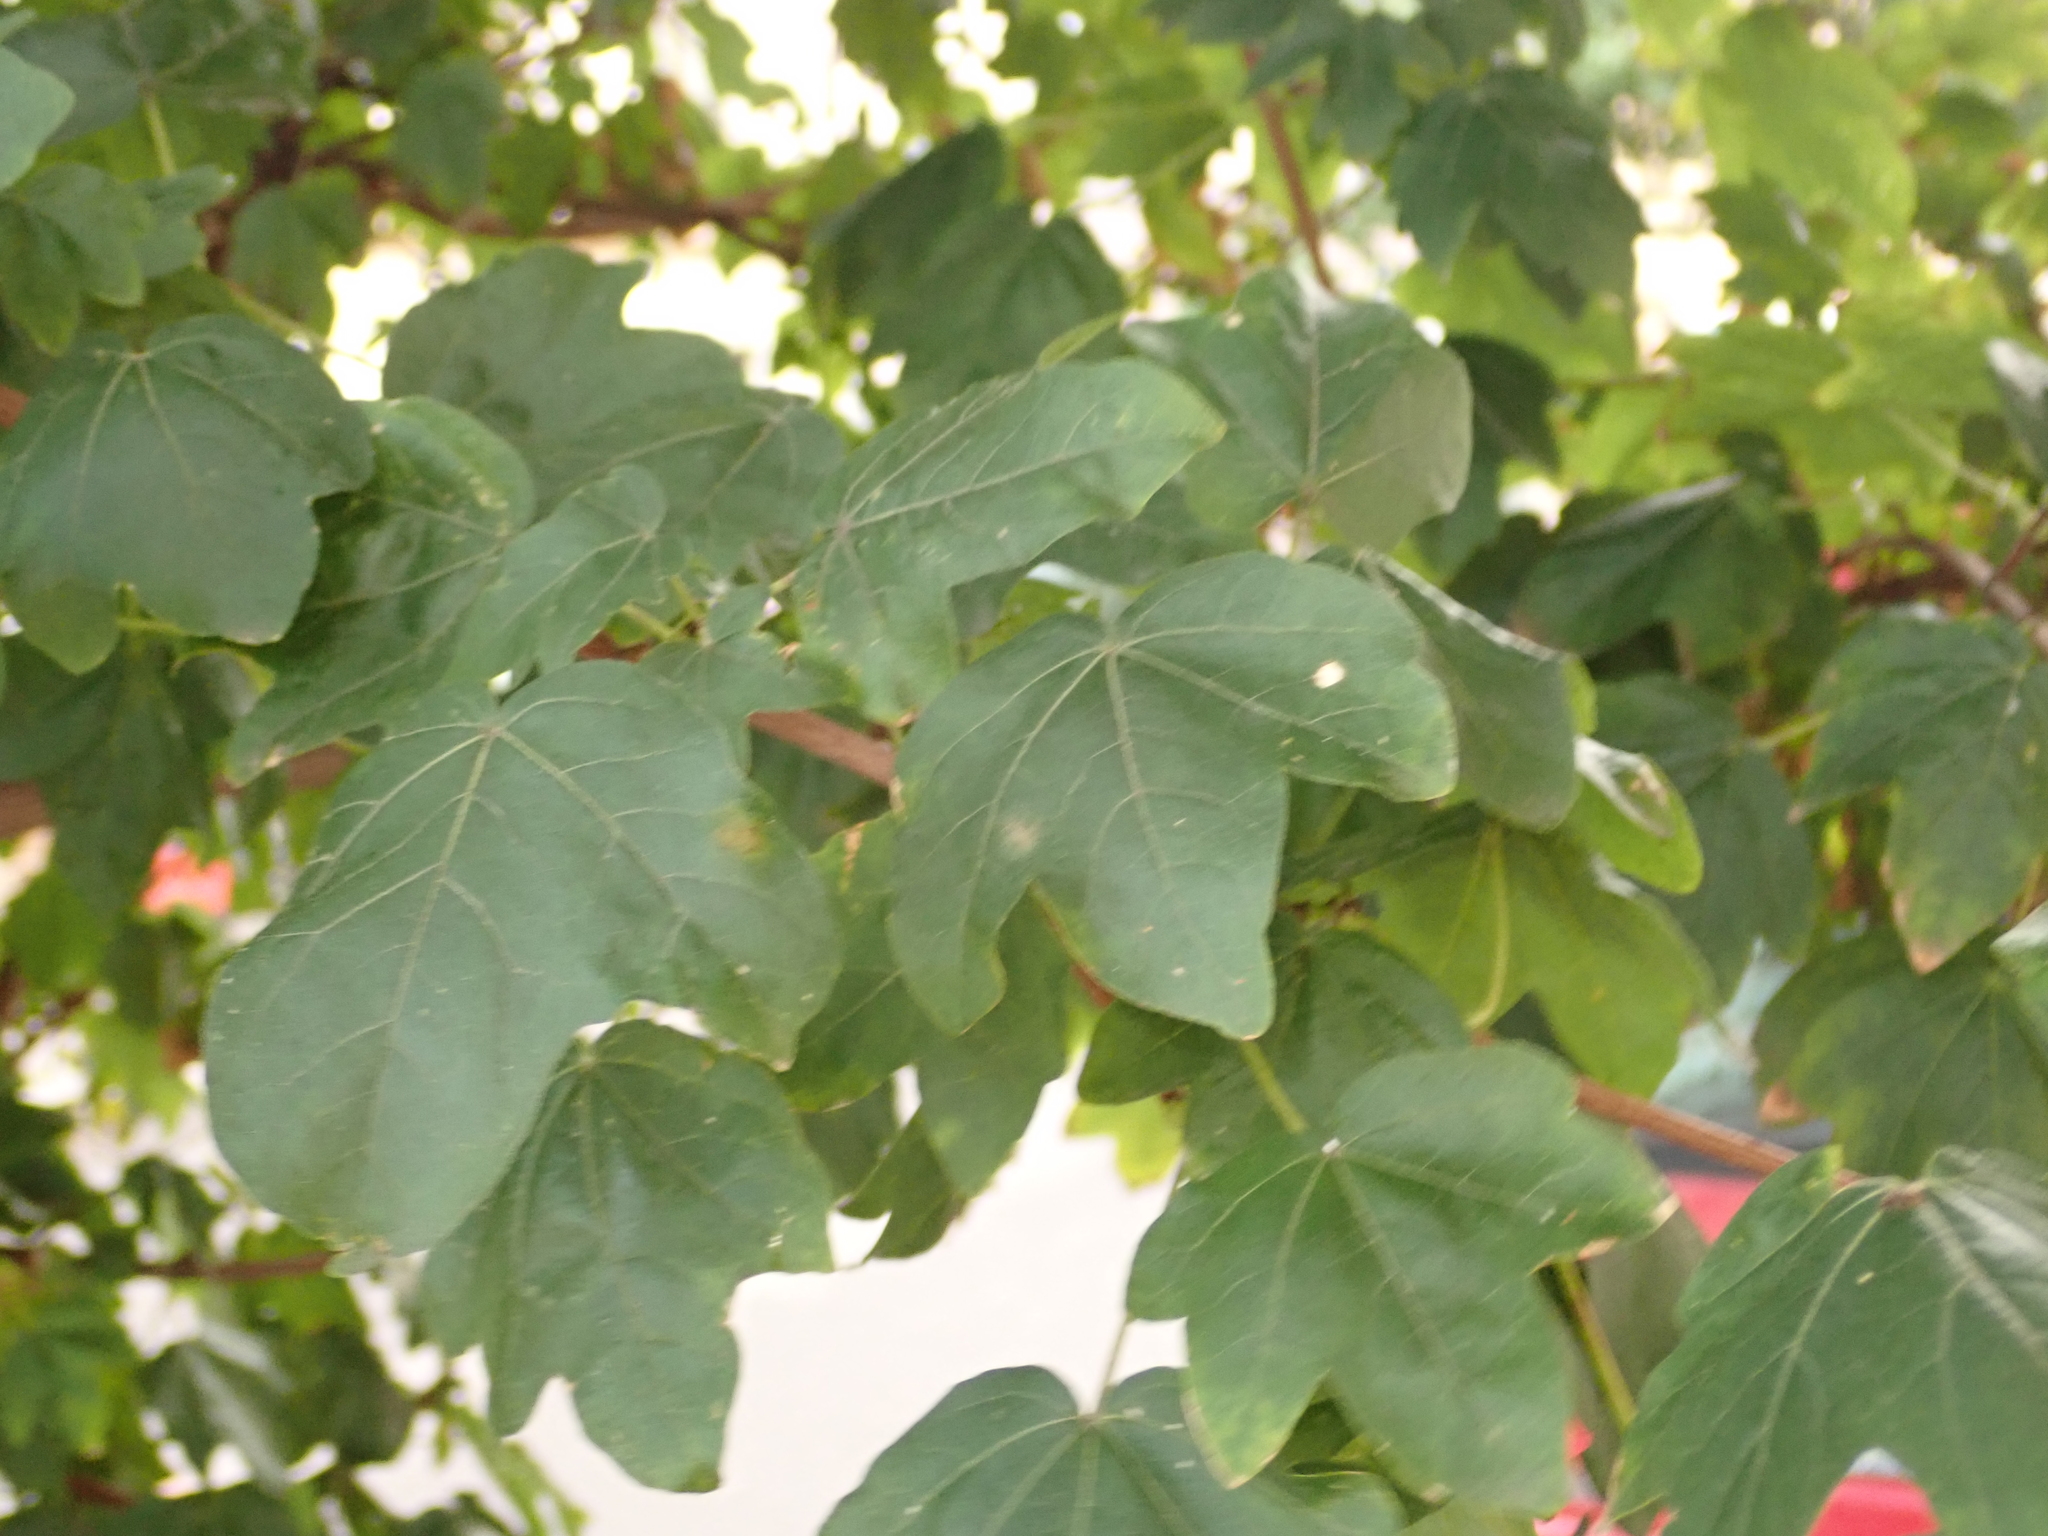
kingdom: Plantae
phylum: Tracheophyta
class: Magnoliopsida
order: Sapindales
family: Sapindaceae
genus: Acer
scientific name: Acer campestre
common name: Field maple
